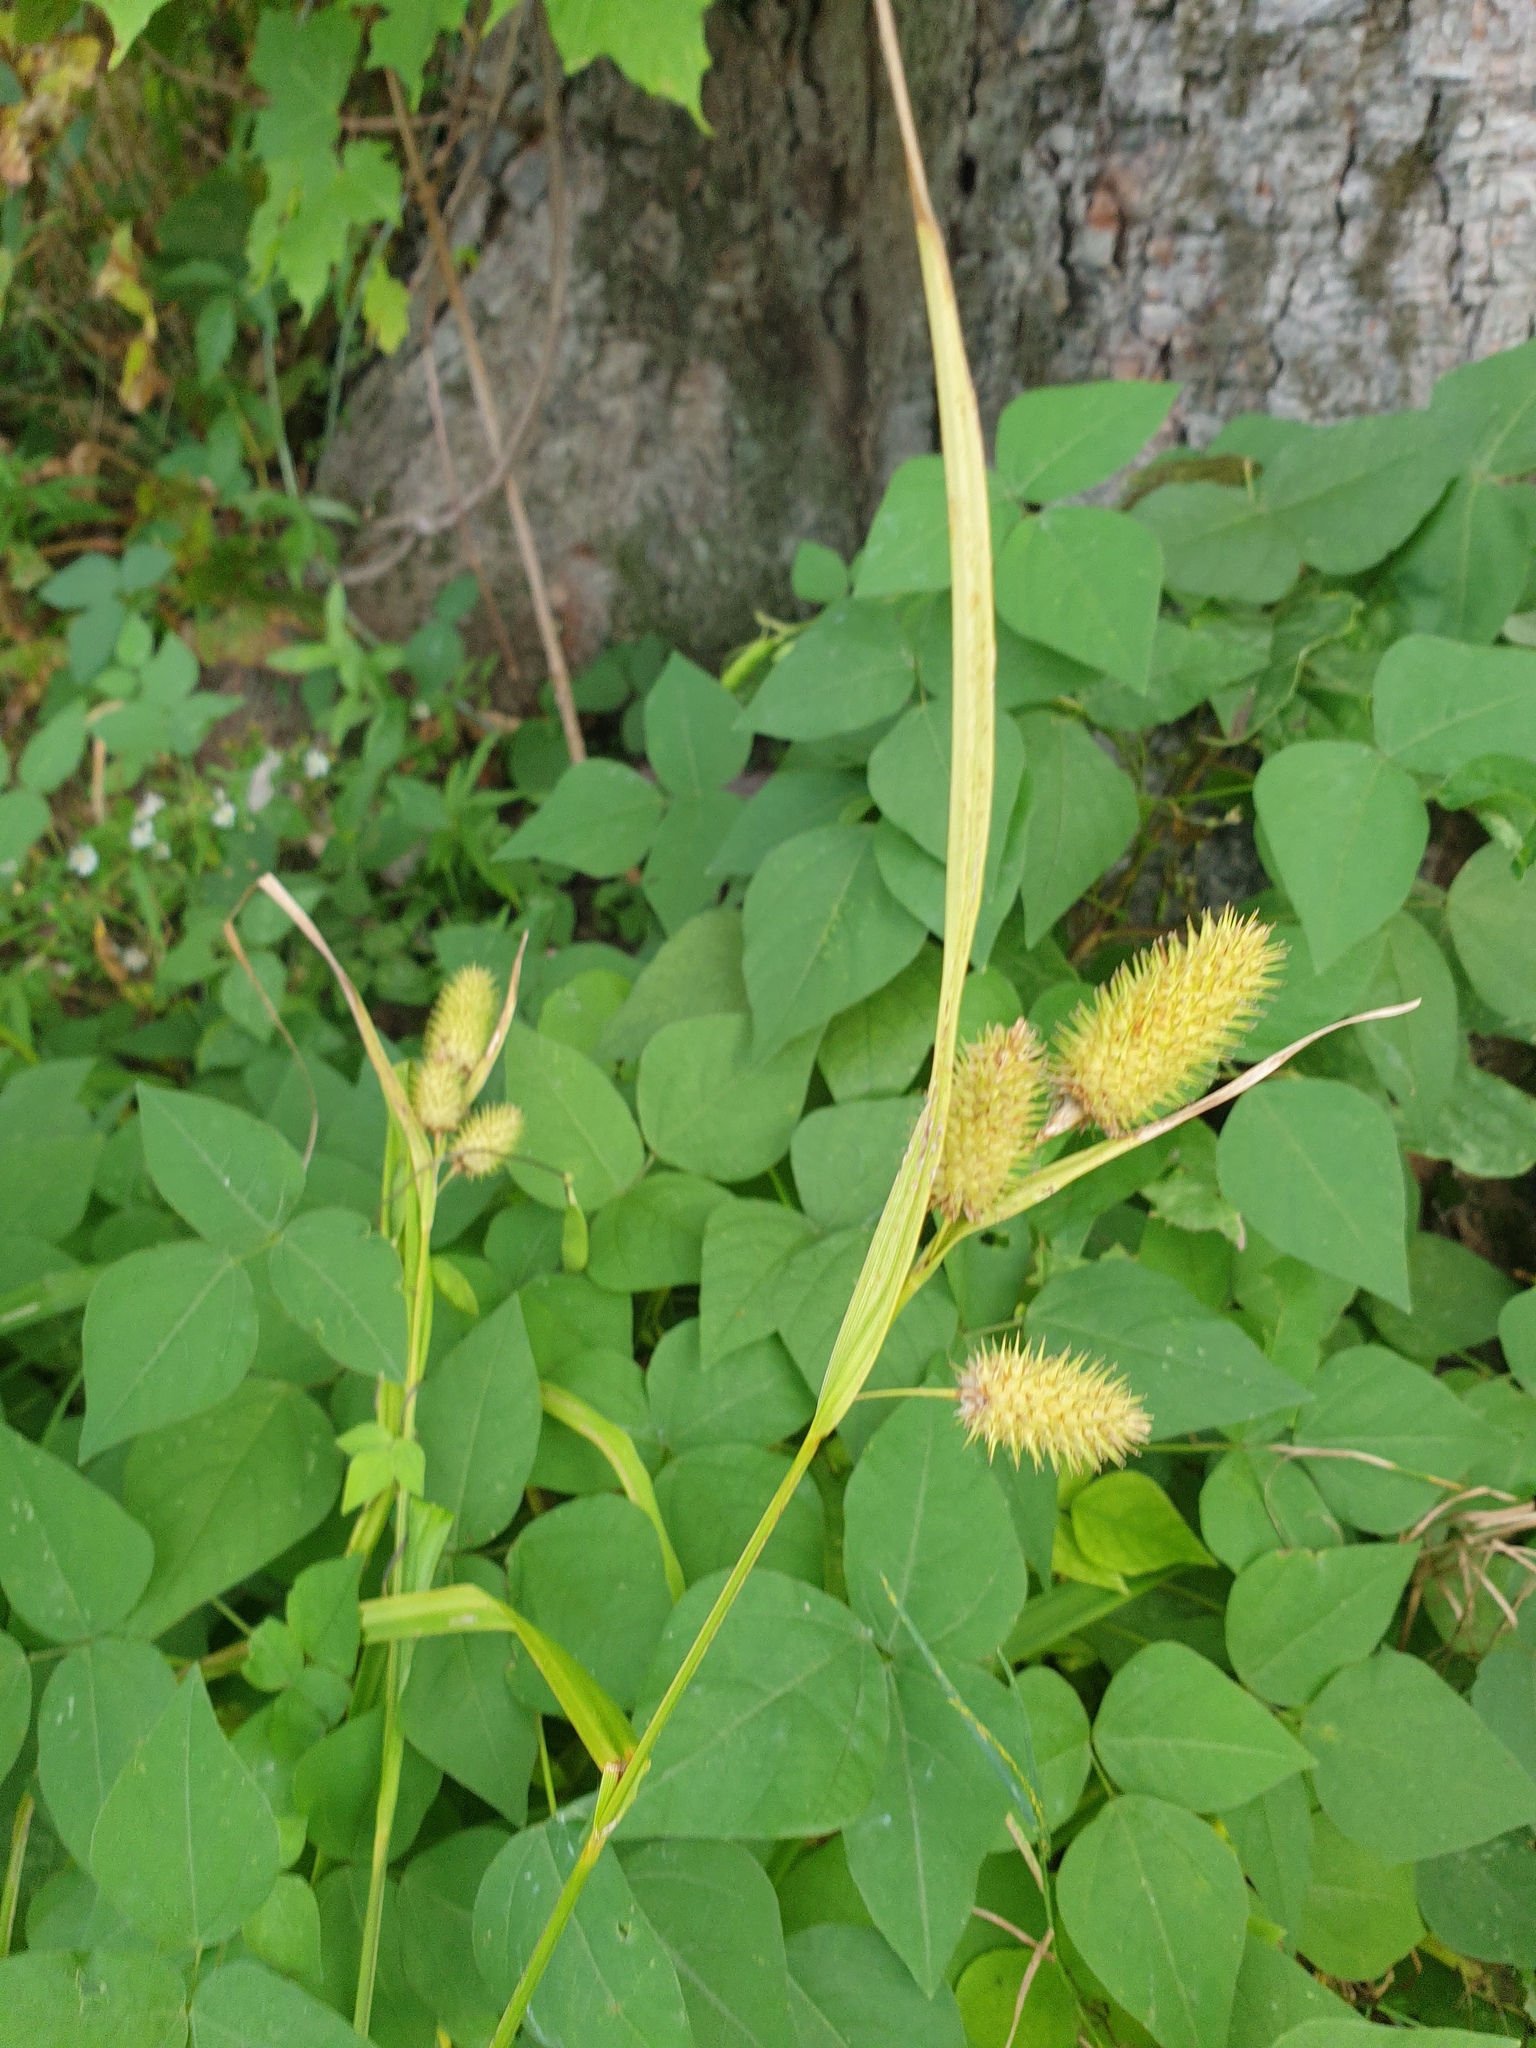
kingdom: Plantae
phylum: Tracheophyta
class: Liliopsida
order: Poales
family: Cyperaceae
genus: Carex
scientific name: Carex typhina
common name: Cattail sedge
